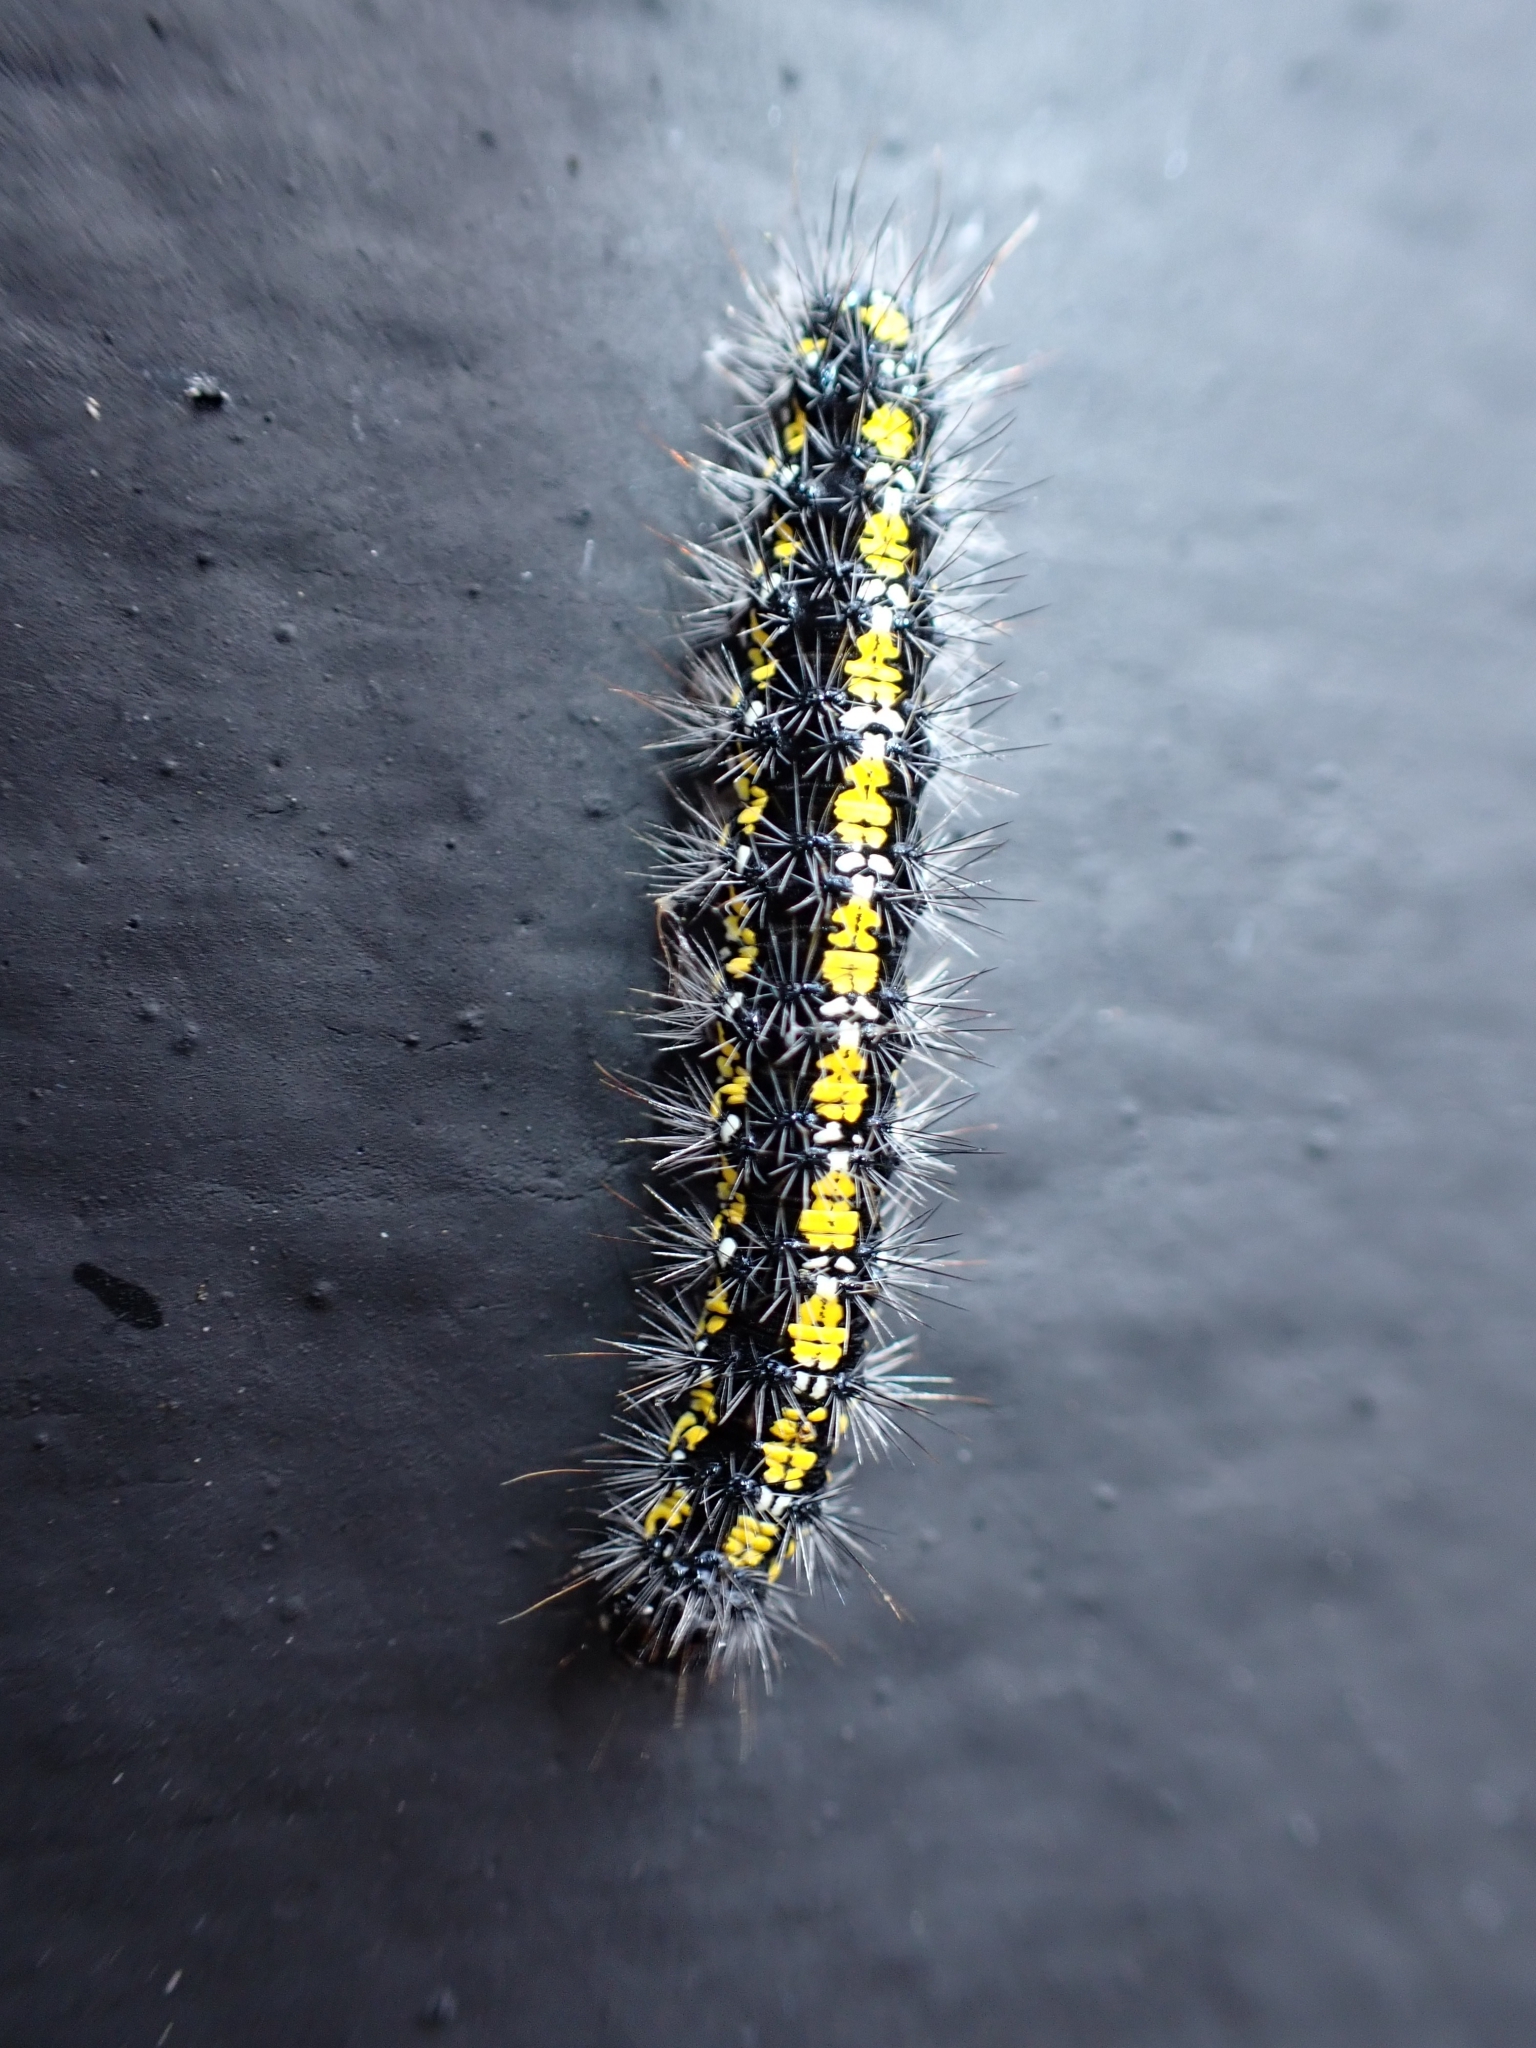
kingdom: Animalia
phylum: Arthropoda
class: Insecta
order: Lepidoptera
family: Erebidae
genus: Callimorpha
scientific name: Callimorpha dominula
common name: Scarlet tiger
